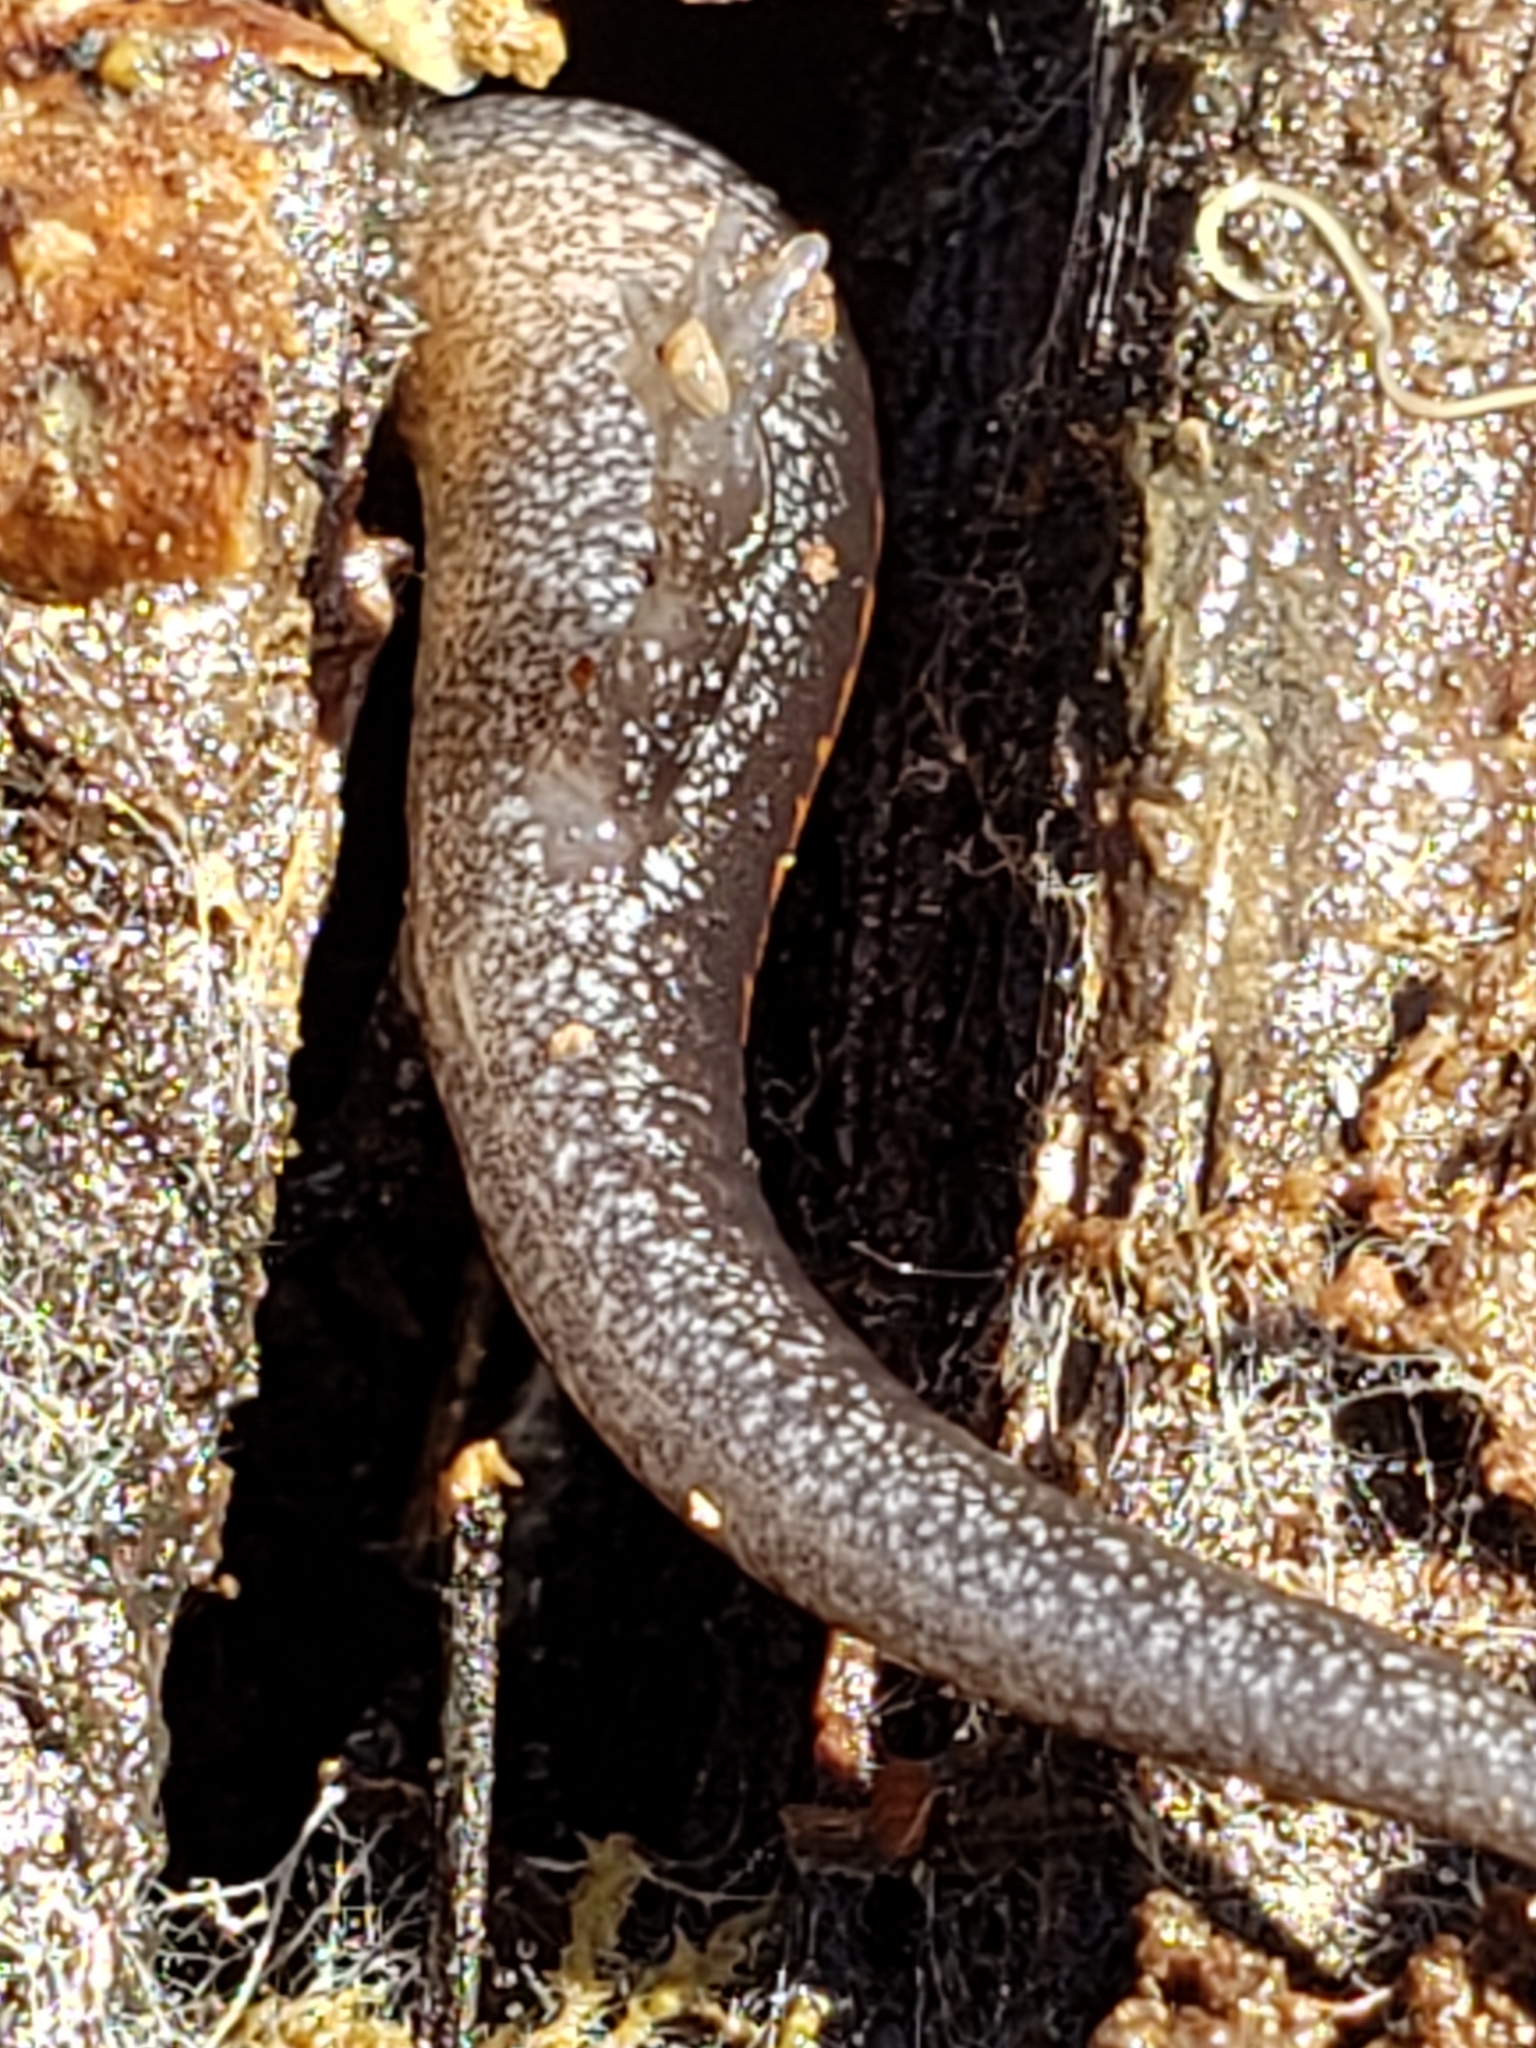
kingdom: Animalia
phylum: Chordata
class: Amphibia
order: Caudata
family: Plethodontidae
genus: Plethodon
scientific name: Plethodon cinereus
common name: Redback salamander
